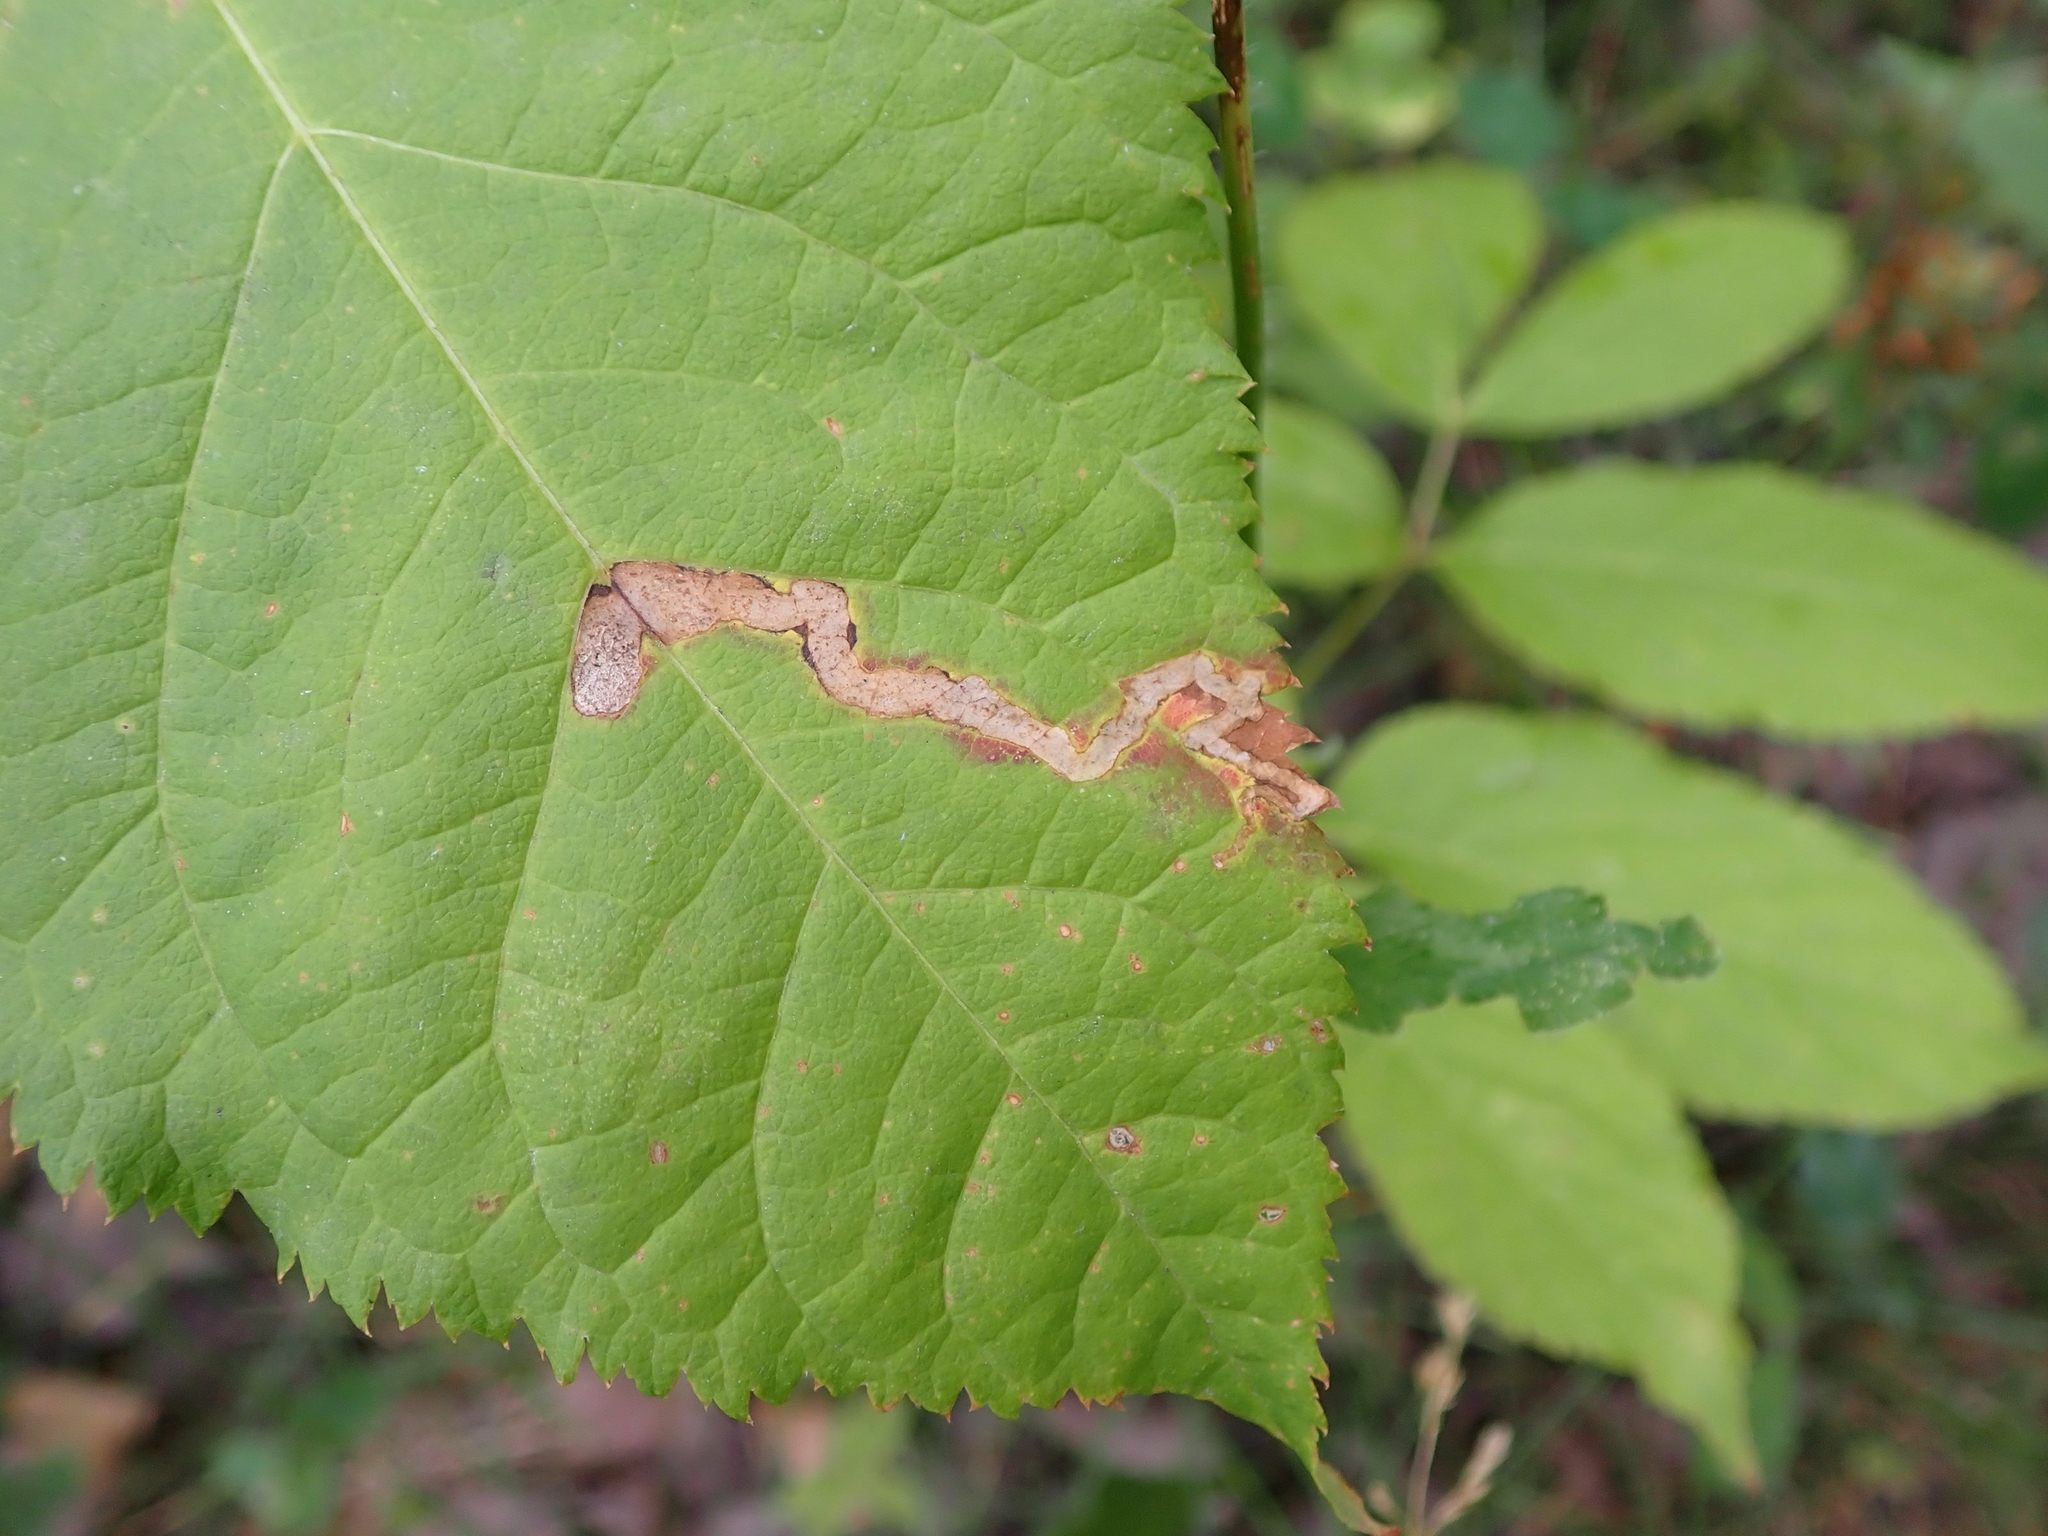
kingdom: Animalia
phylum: Arthropoda
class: Insecta
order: Diptera
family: Agromyzidae
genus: Phytomyza
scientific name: Phytomyza aralivora
